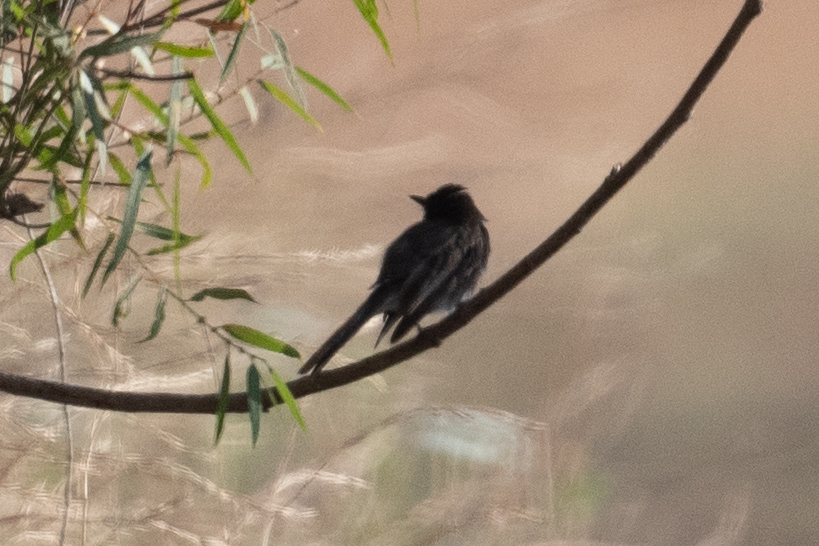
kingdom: Animalia
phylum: Chordata
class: Aves
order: Passeriformes
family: Tyrannidae
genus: Sayornis
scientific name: Sayornis nigricans
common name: Black phoebe
